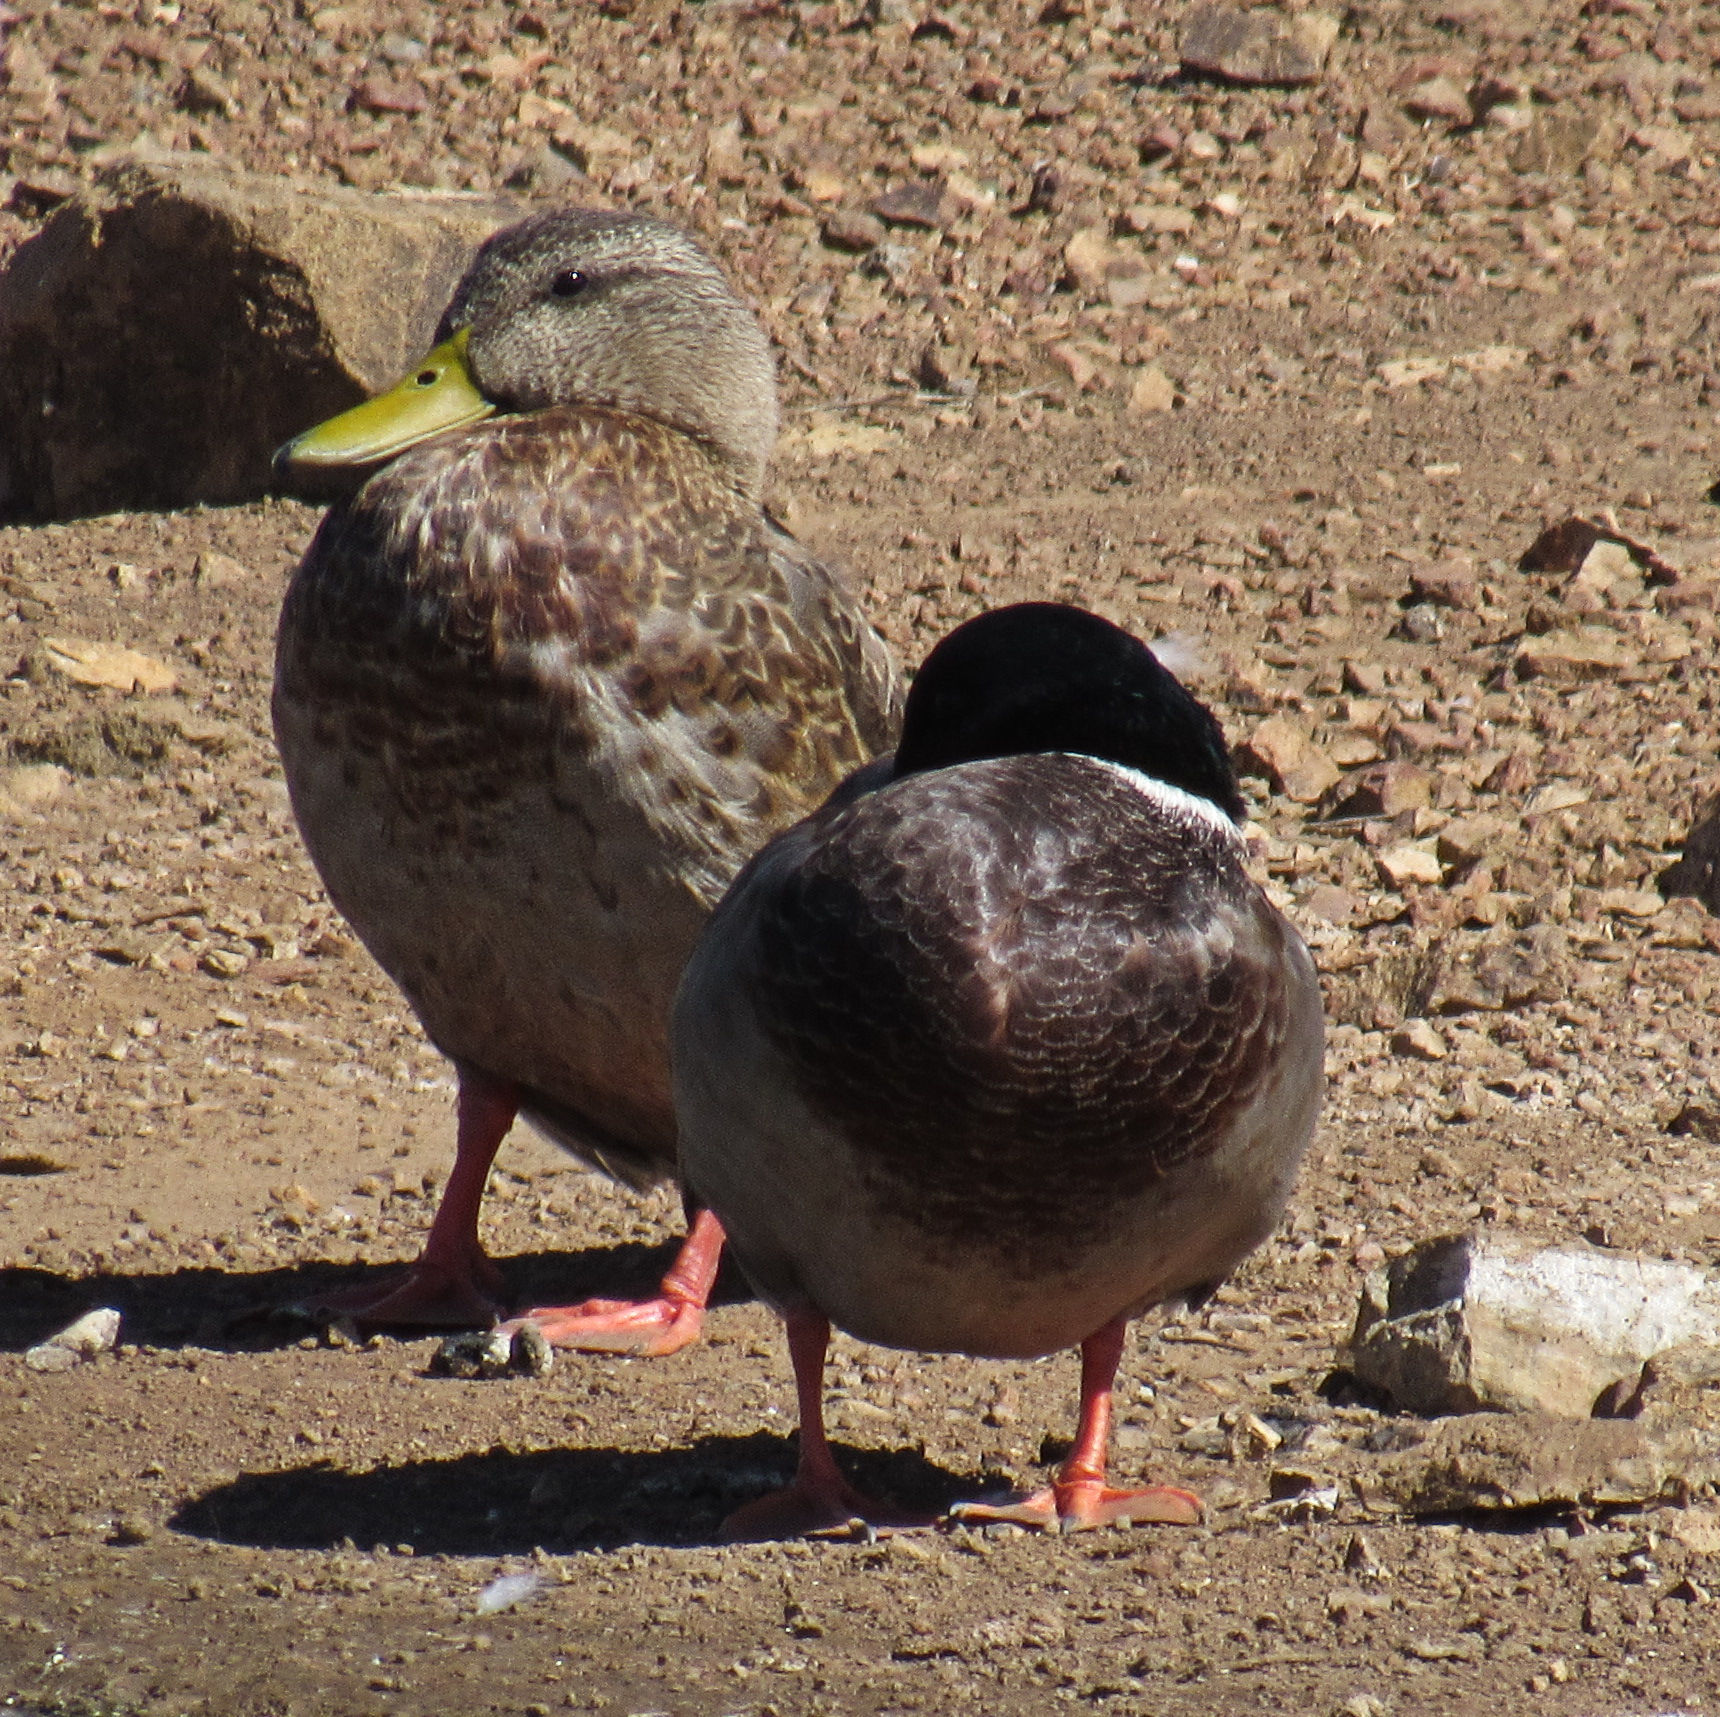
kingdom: Animalia
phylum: Chordata
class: Aves
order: Anseriformes
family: Anatidae
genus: Anas
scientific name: Anas platyrhynchos
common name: Mallard
